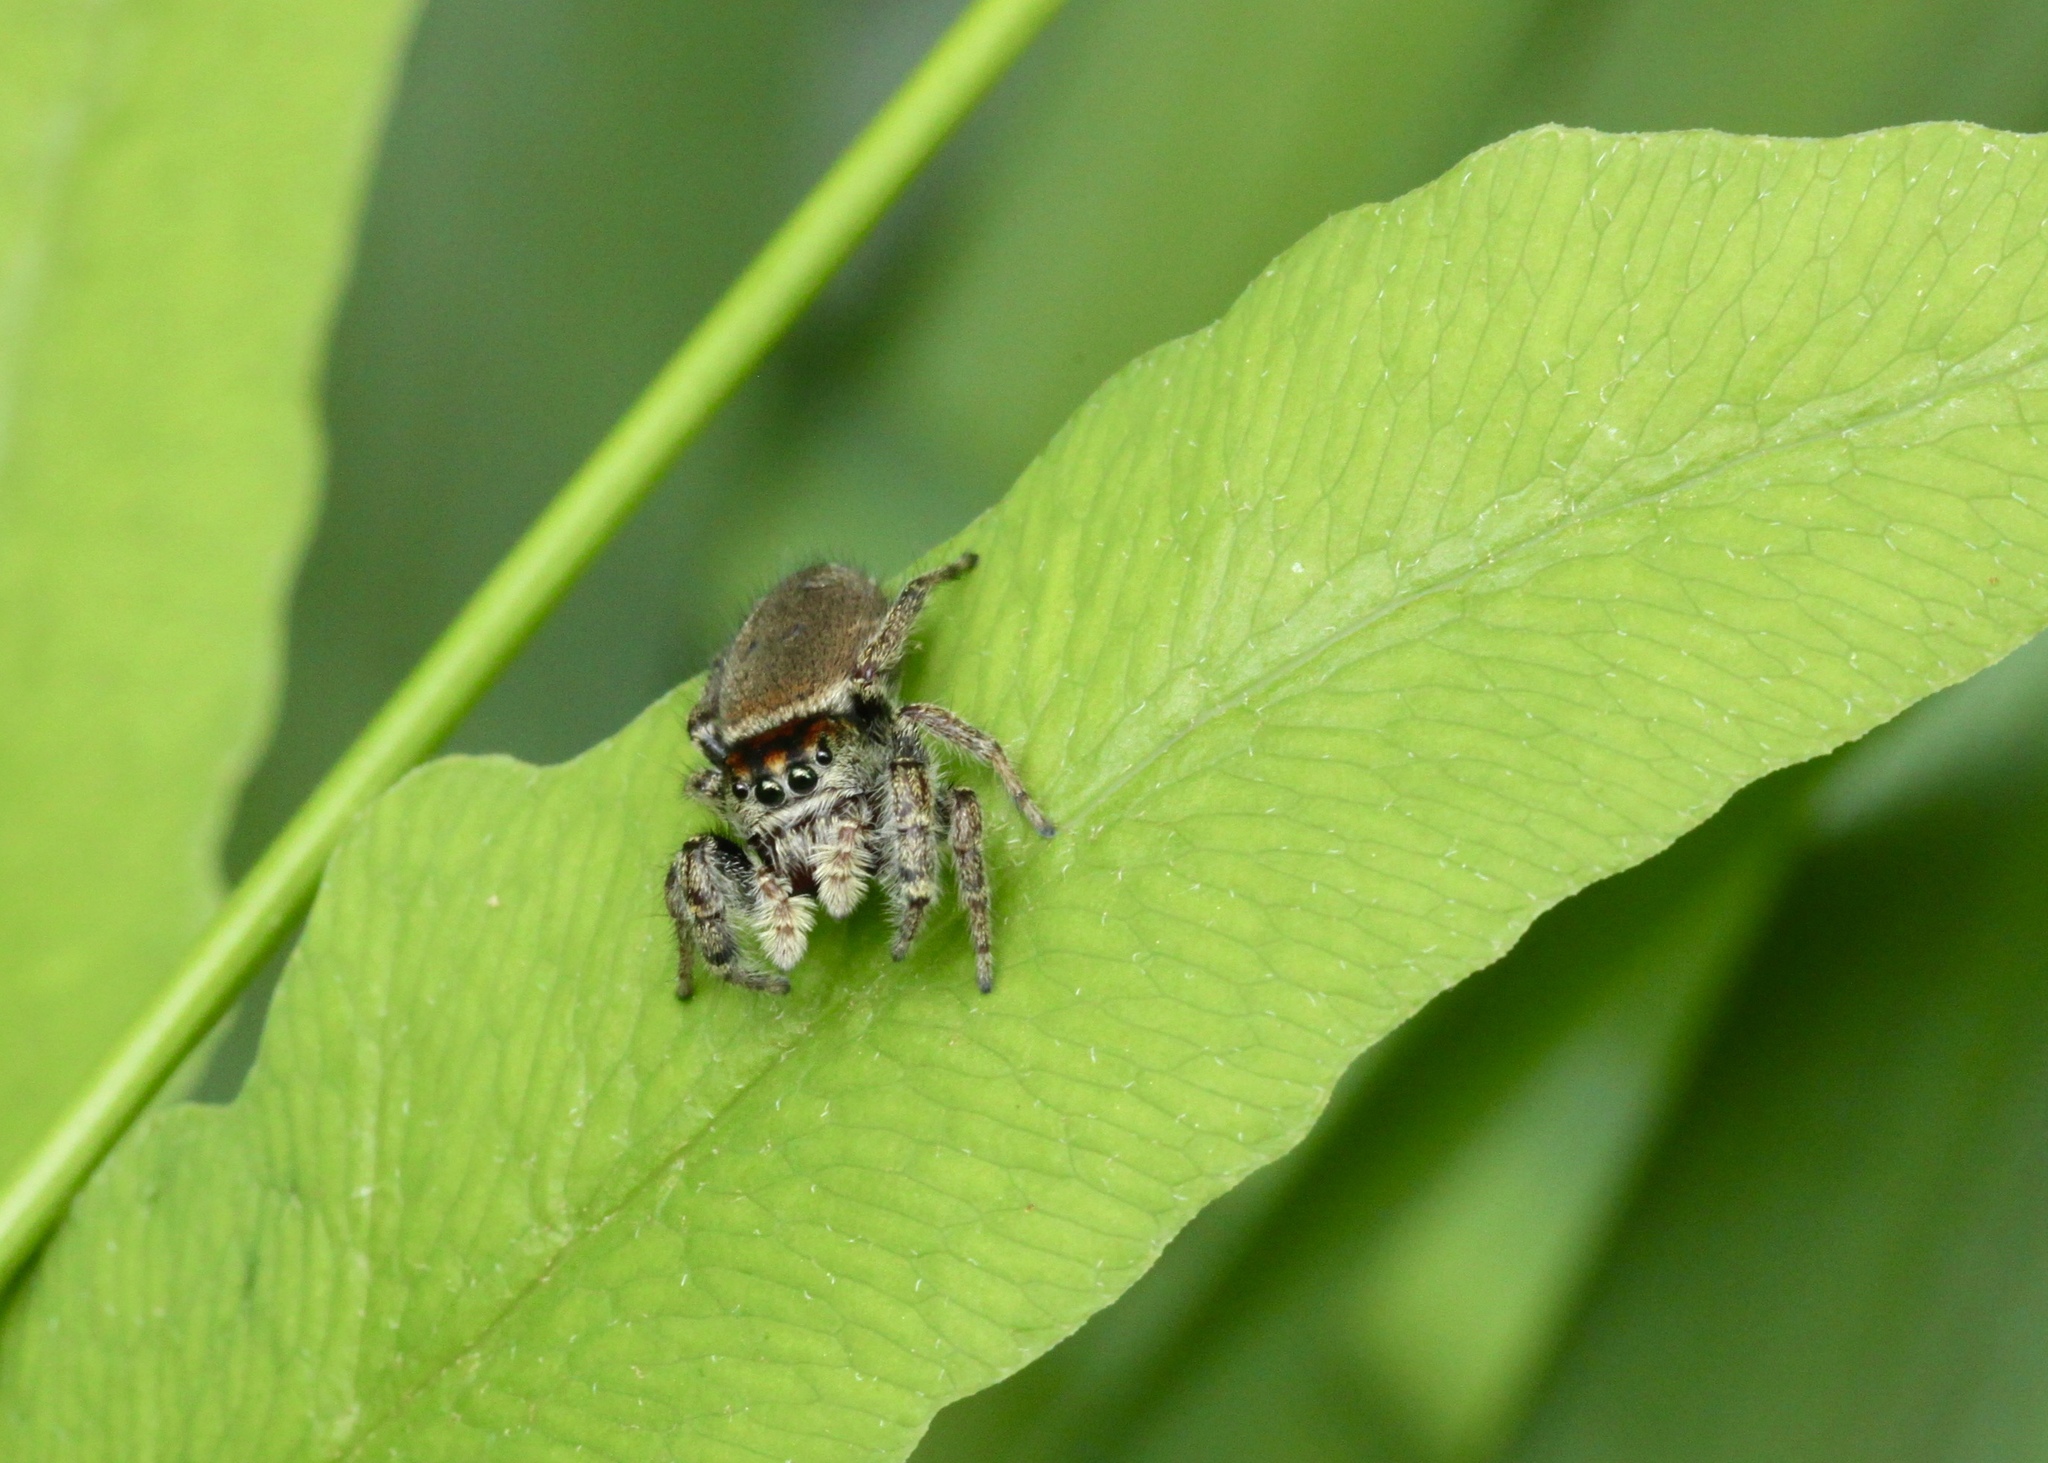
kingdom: Animalia
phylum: Arthropoda
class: Arachnida
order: Araneae
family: Salticidae
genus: Phidippus
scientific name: Phidippus whitmani
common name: Whitman's jumping spider
